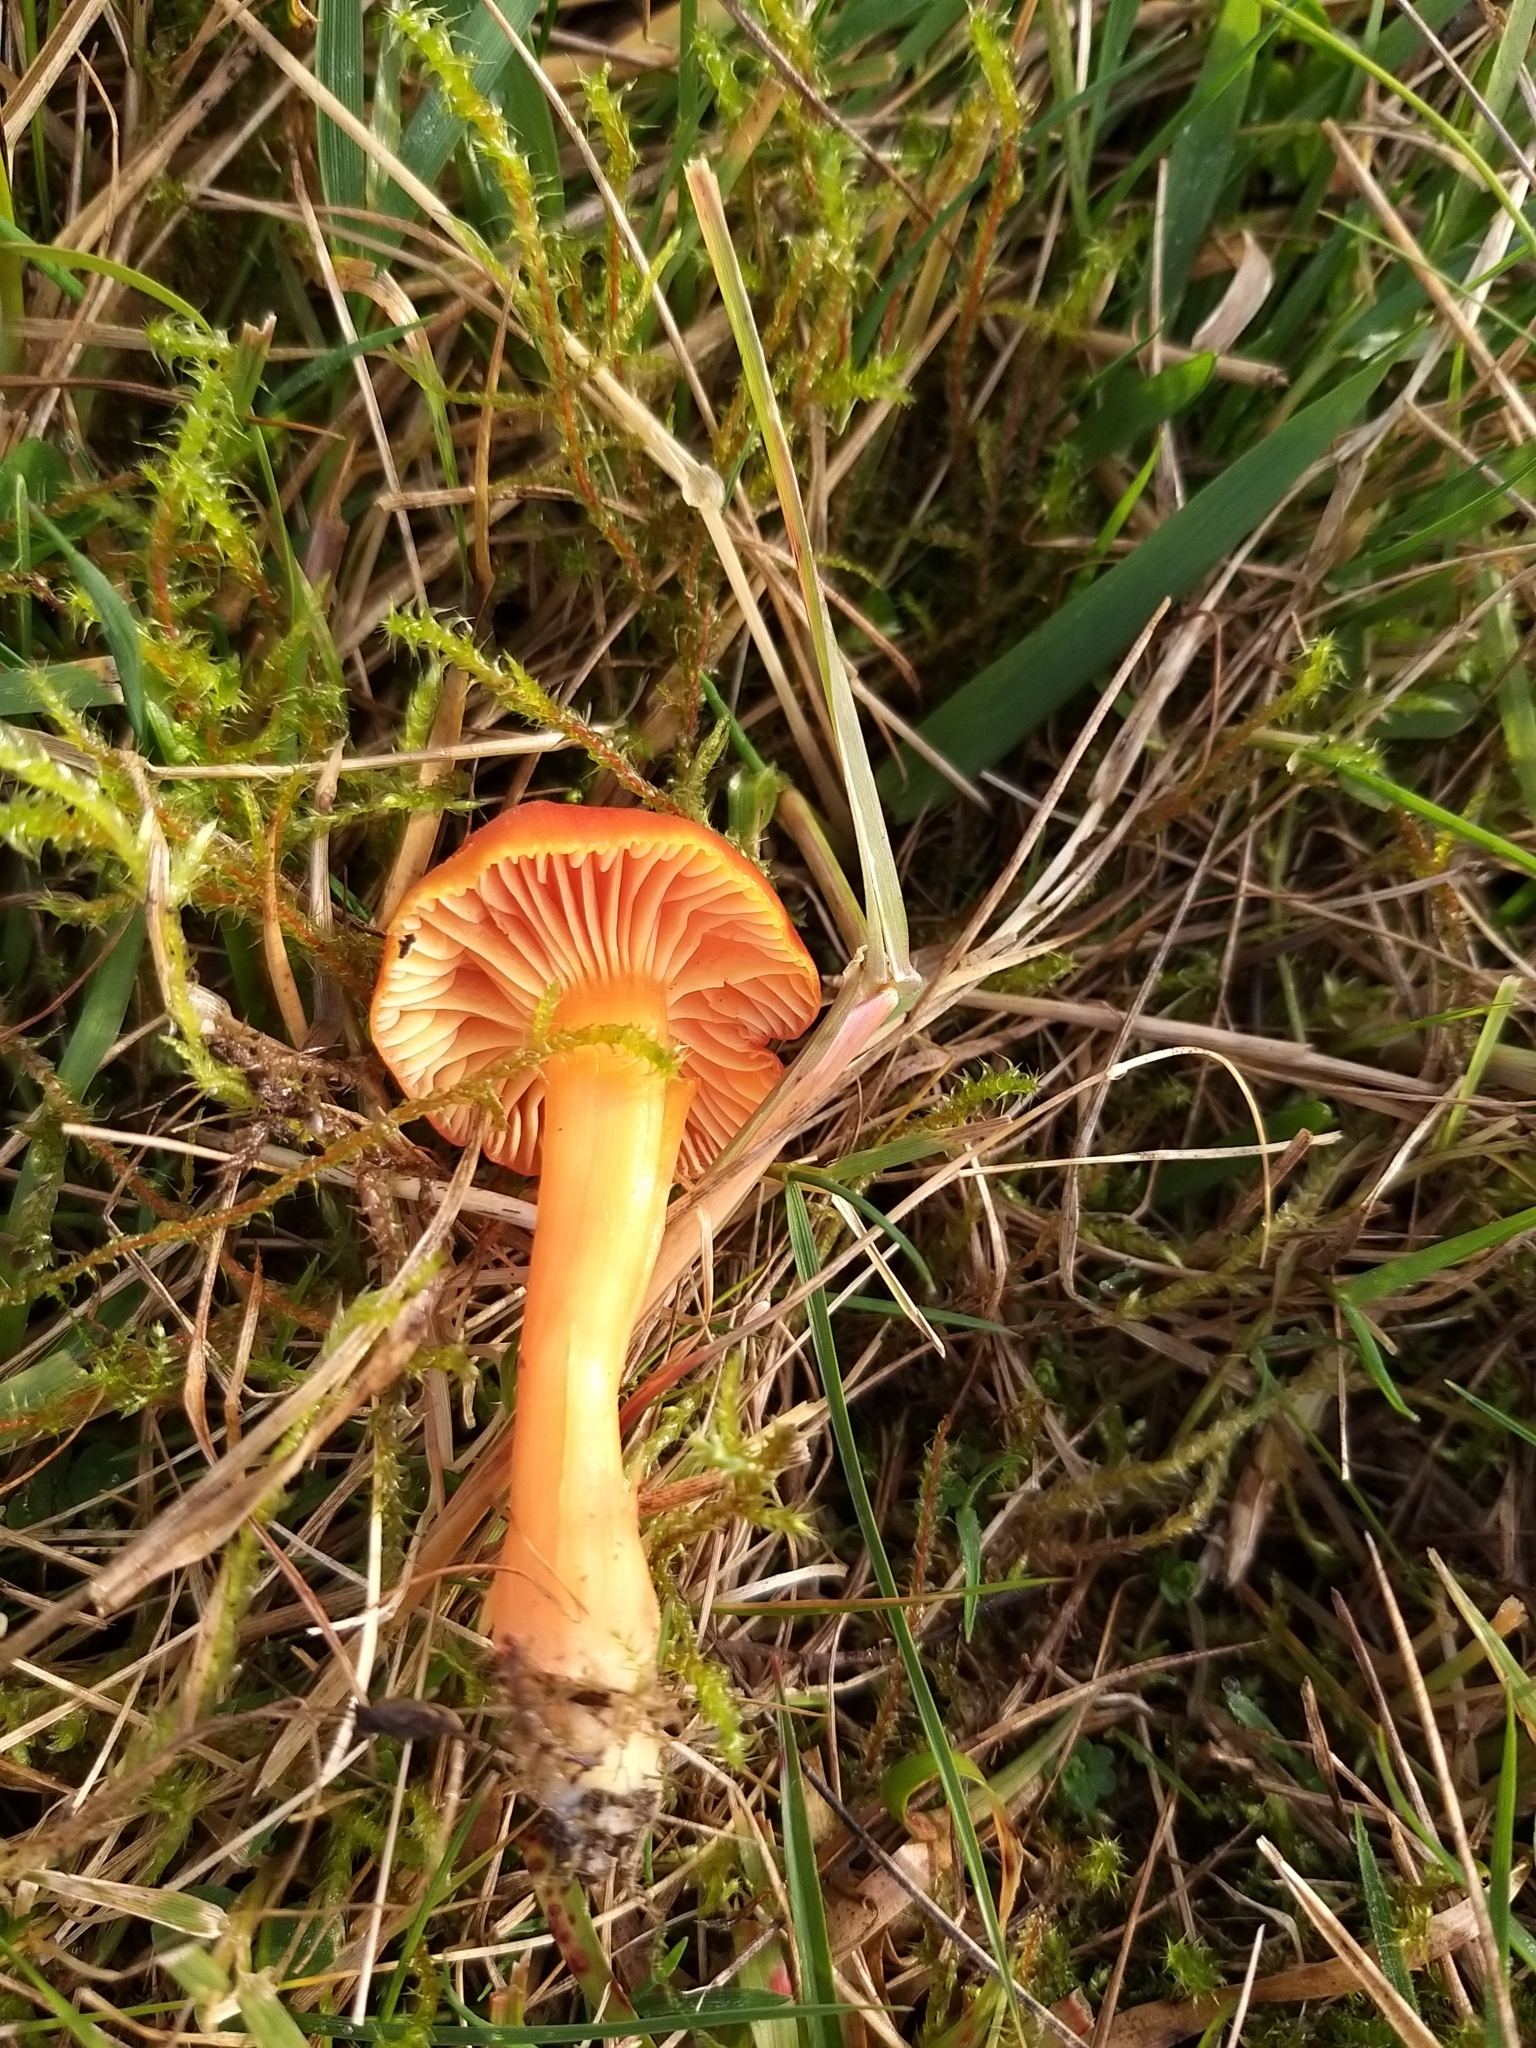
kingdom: Fungi
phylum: Basidiomycota
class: Agaricomycetes
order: Agaricales
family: Hygrophoraceae
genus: Hygrocybe
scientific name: Hygrocybe reidii
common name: Honey waxcap
